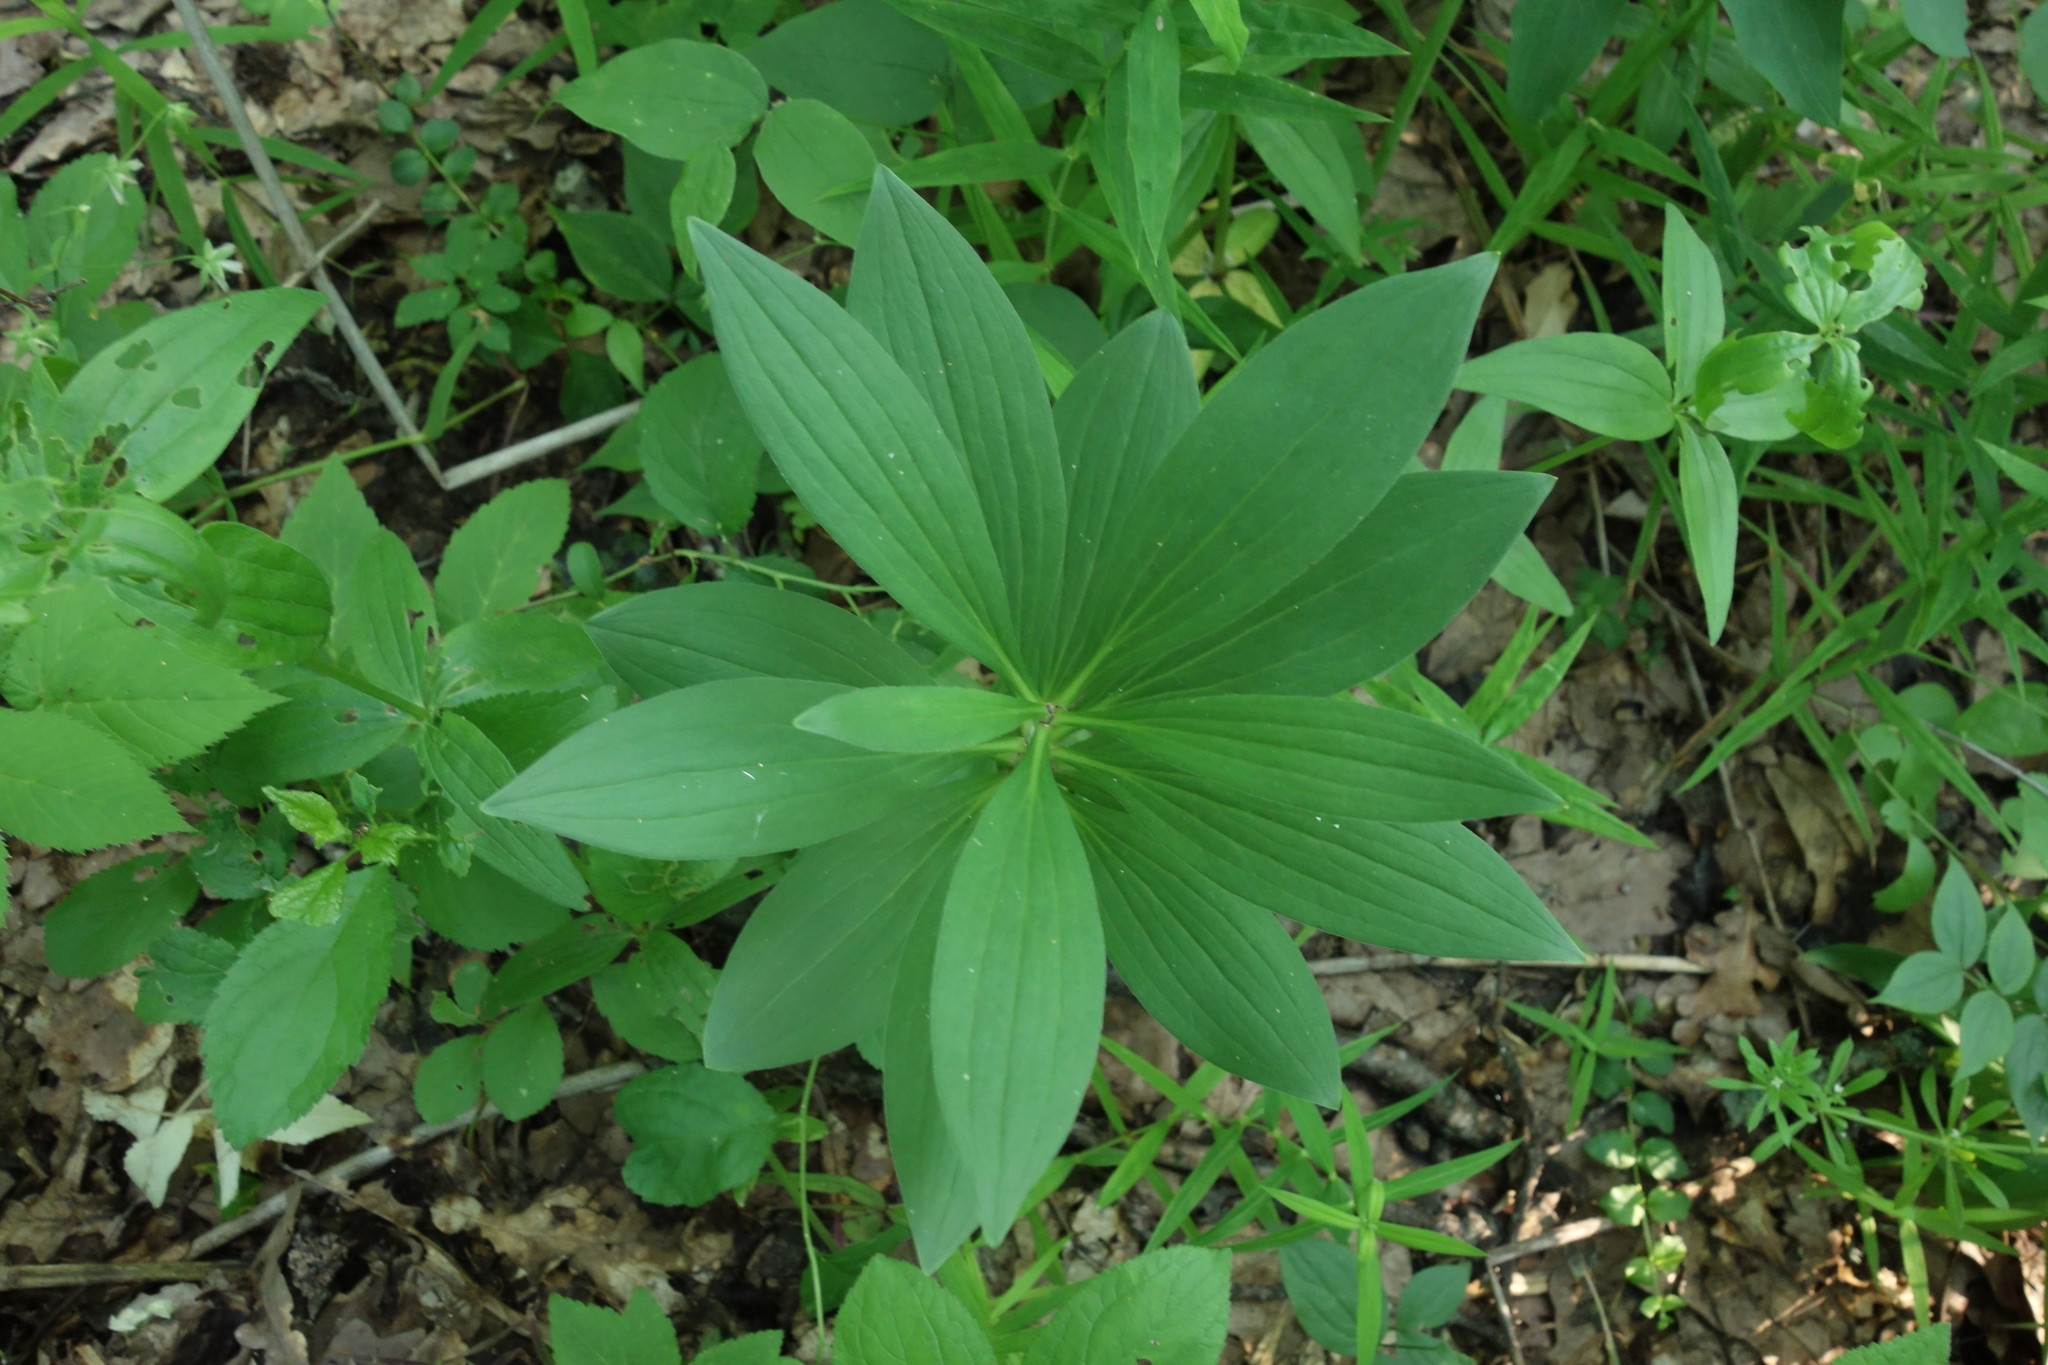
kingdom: Plantae
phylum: Tracheophyta
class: Liliopsida
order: Liliales
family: Liliaceae
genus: Lilium
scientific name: Lilium martagon
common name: Martagon lily
